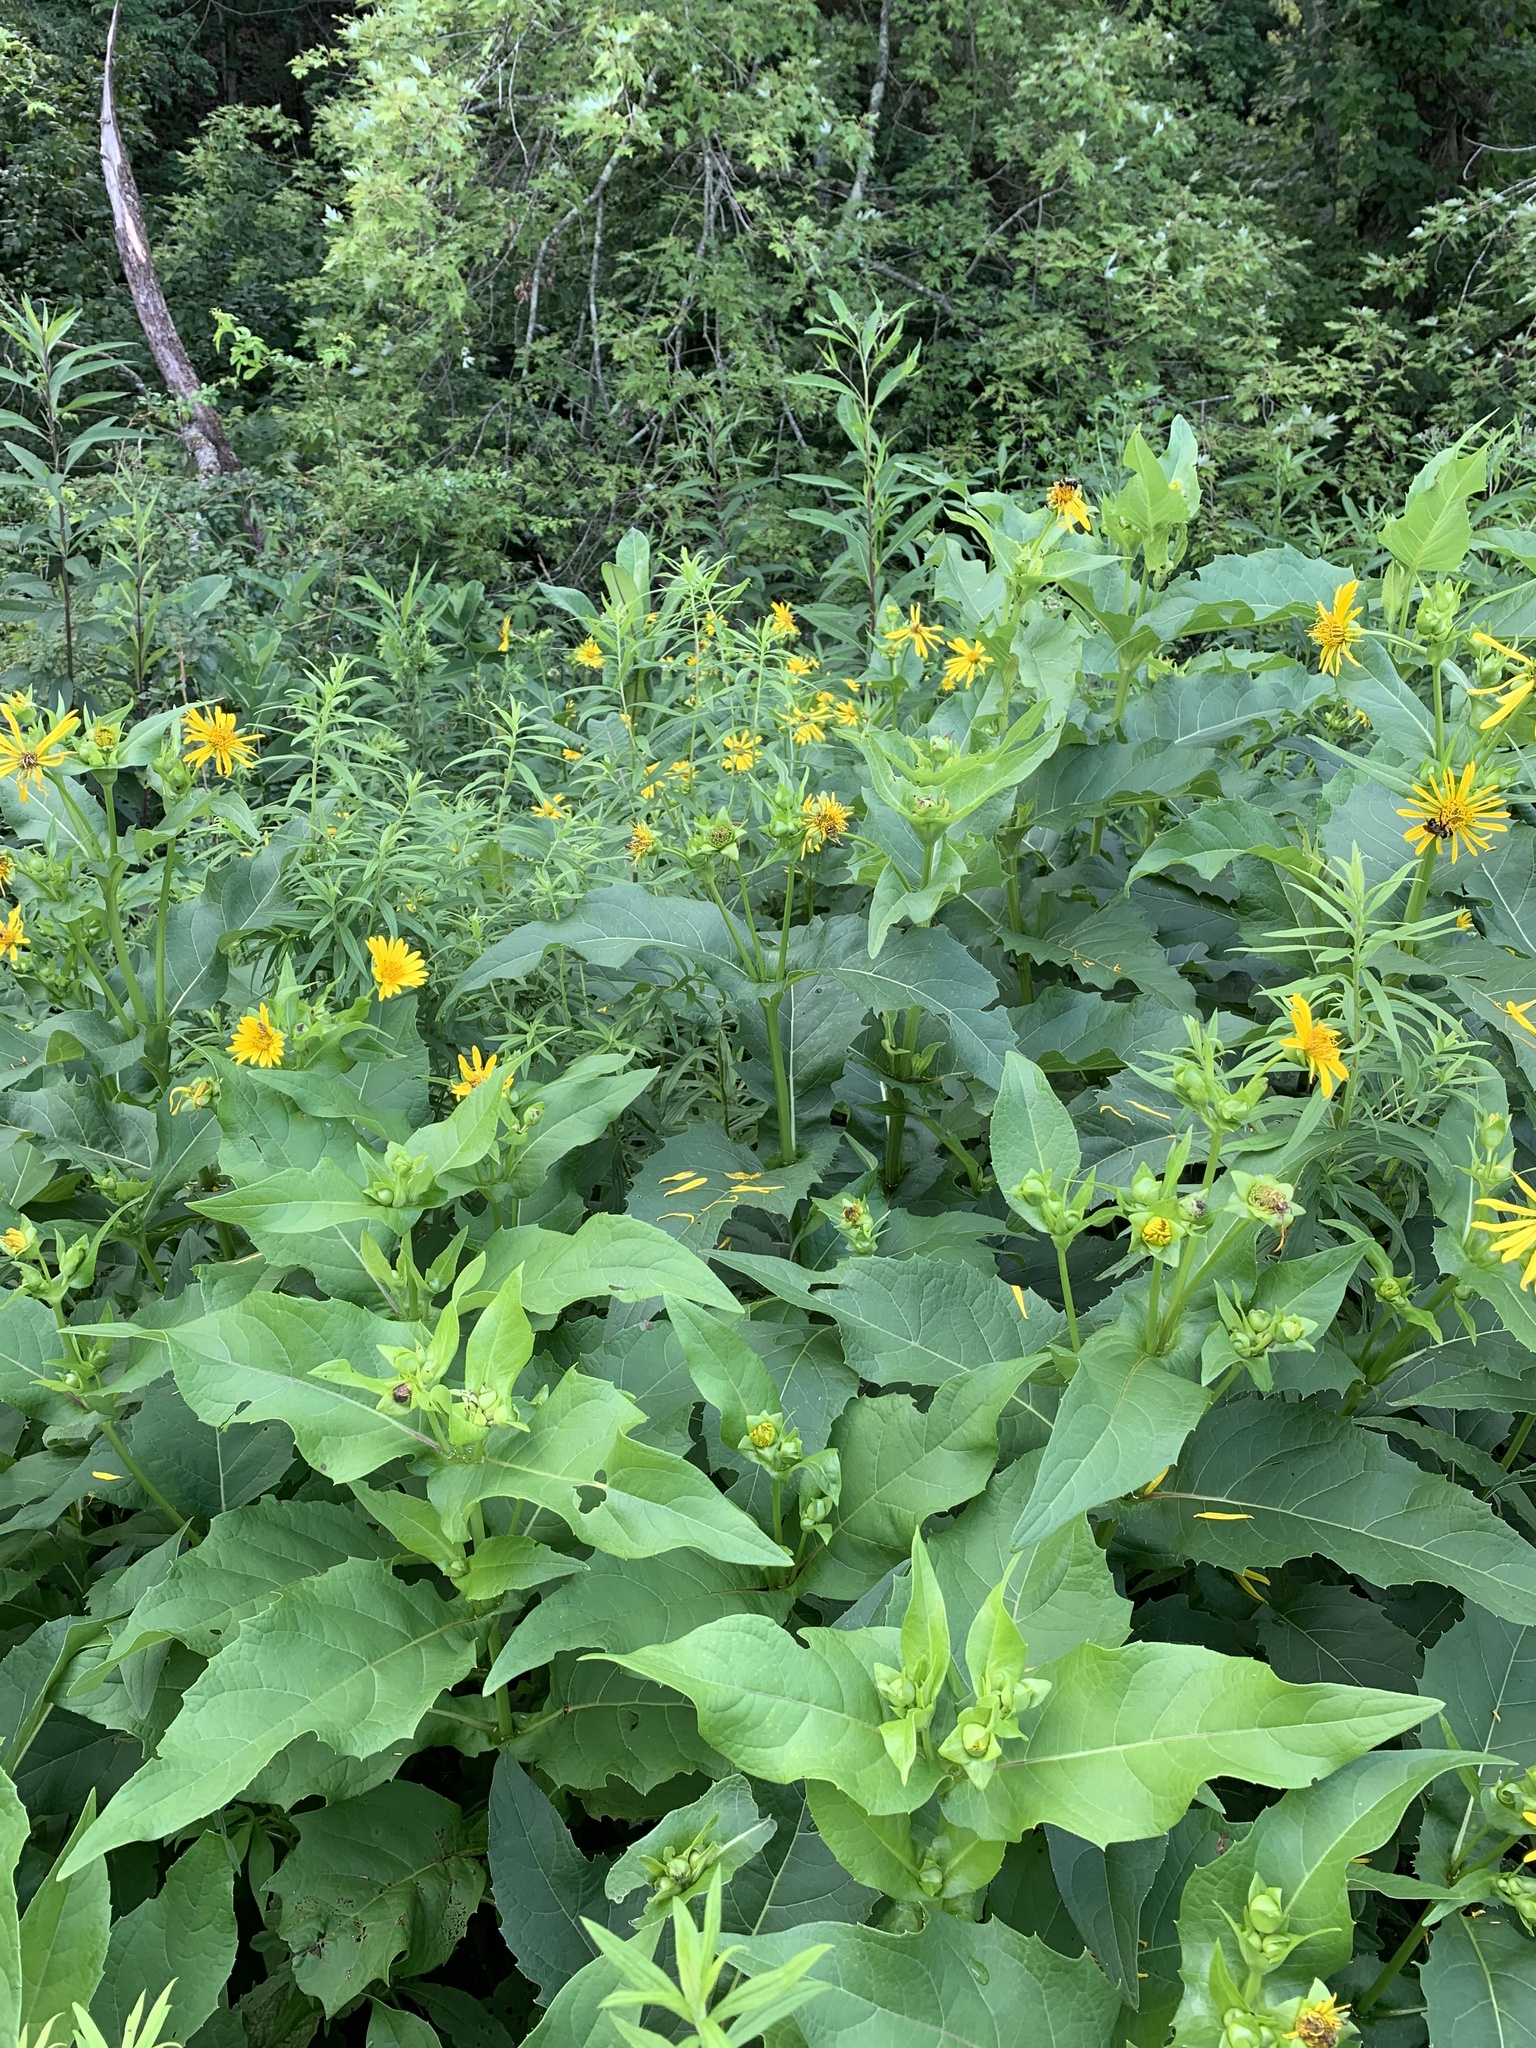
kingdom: Plantae
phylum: Tracheophyta
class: Magnoliopsida
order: Asterales
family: Asteraceae
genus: Silphium
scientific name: Silphium perfoliatum
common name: Cup-plant
